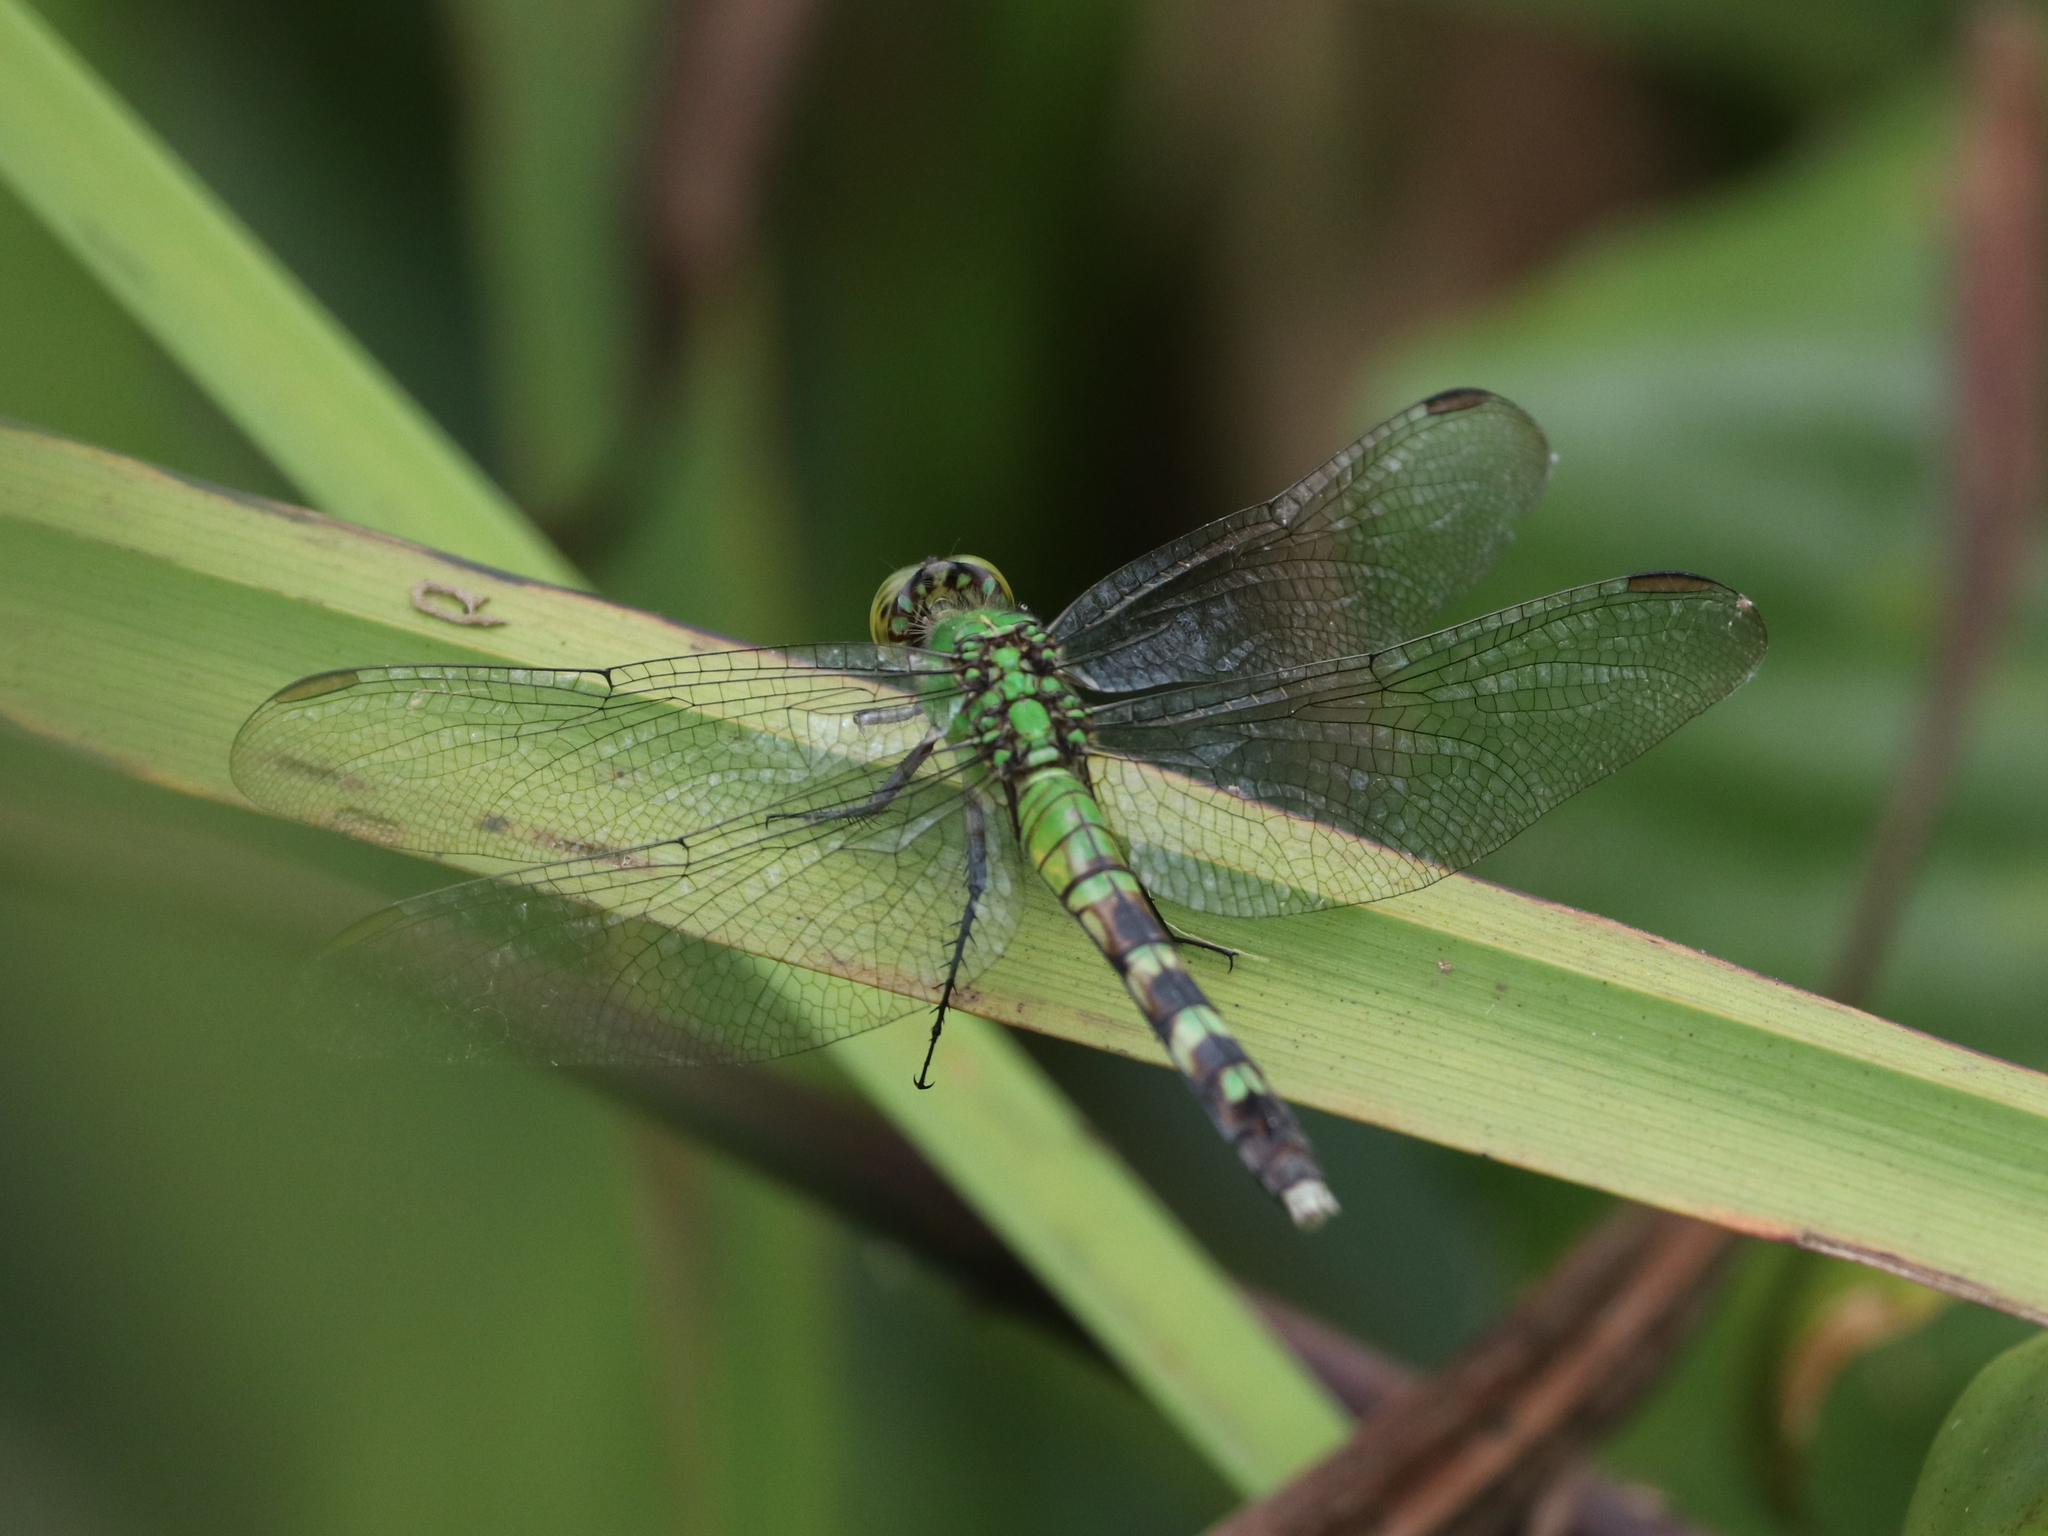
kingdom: Animalia
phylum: Arthropoda
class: Insecta
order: Odonata
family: Libellulidae
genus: Erythemis
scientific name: Erythemis simplicicollis
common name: Eastern pondhawk
